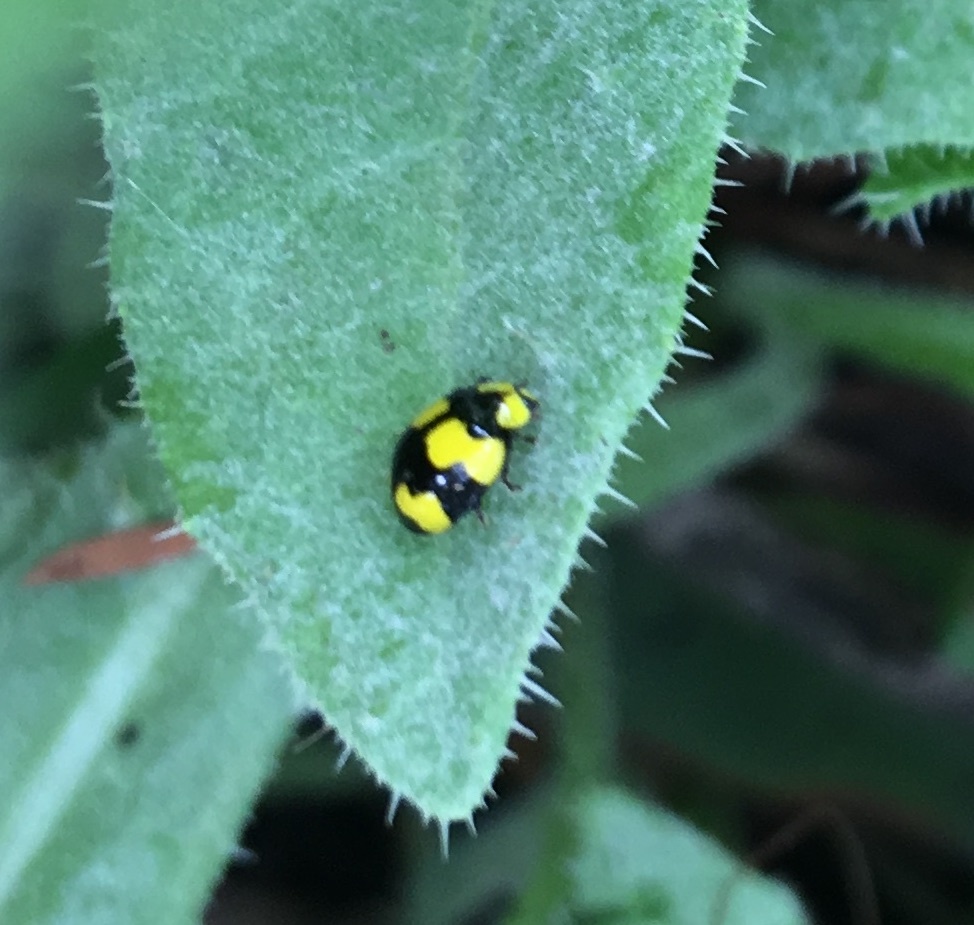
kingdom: Animalia
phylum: Arthropoda
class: Insecta
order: Coleoptera
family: Coccinellidae
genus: Illeis
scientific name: Illeis galbula
